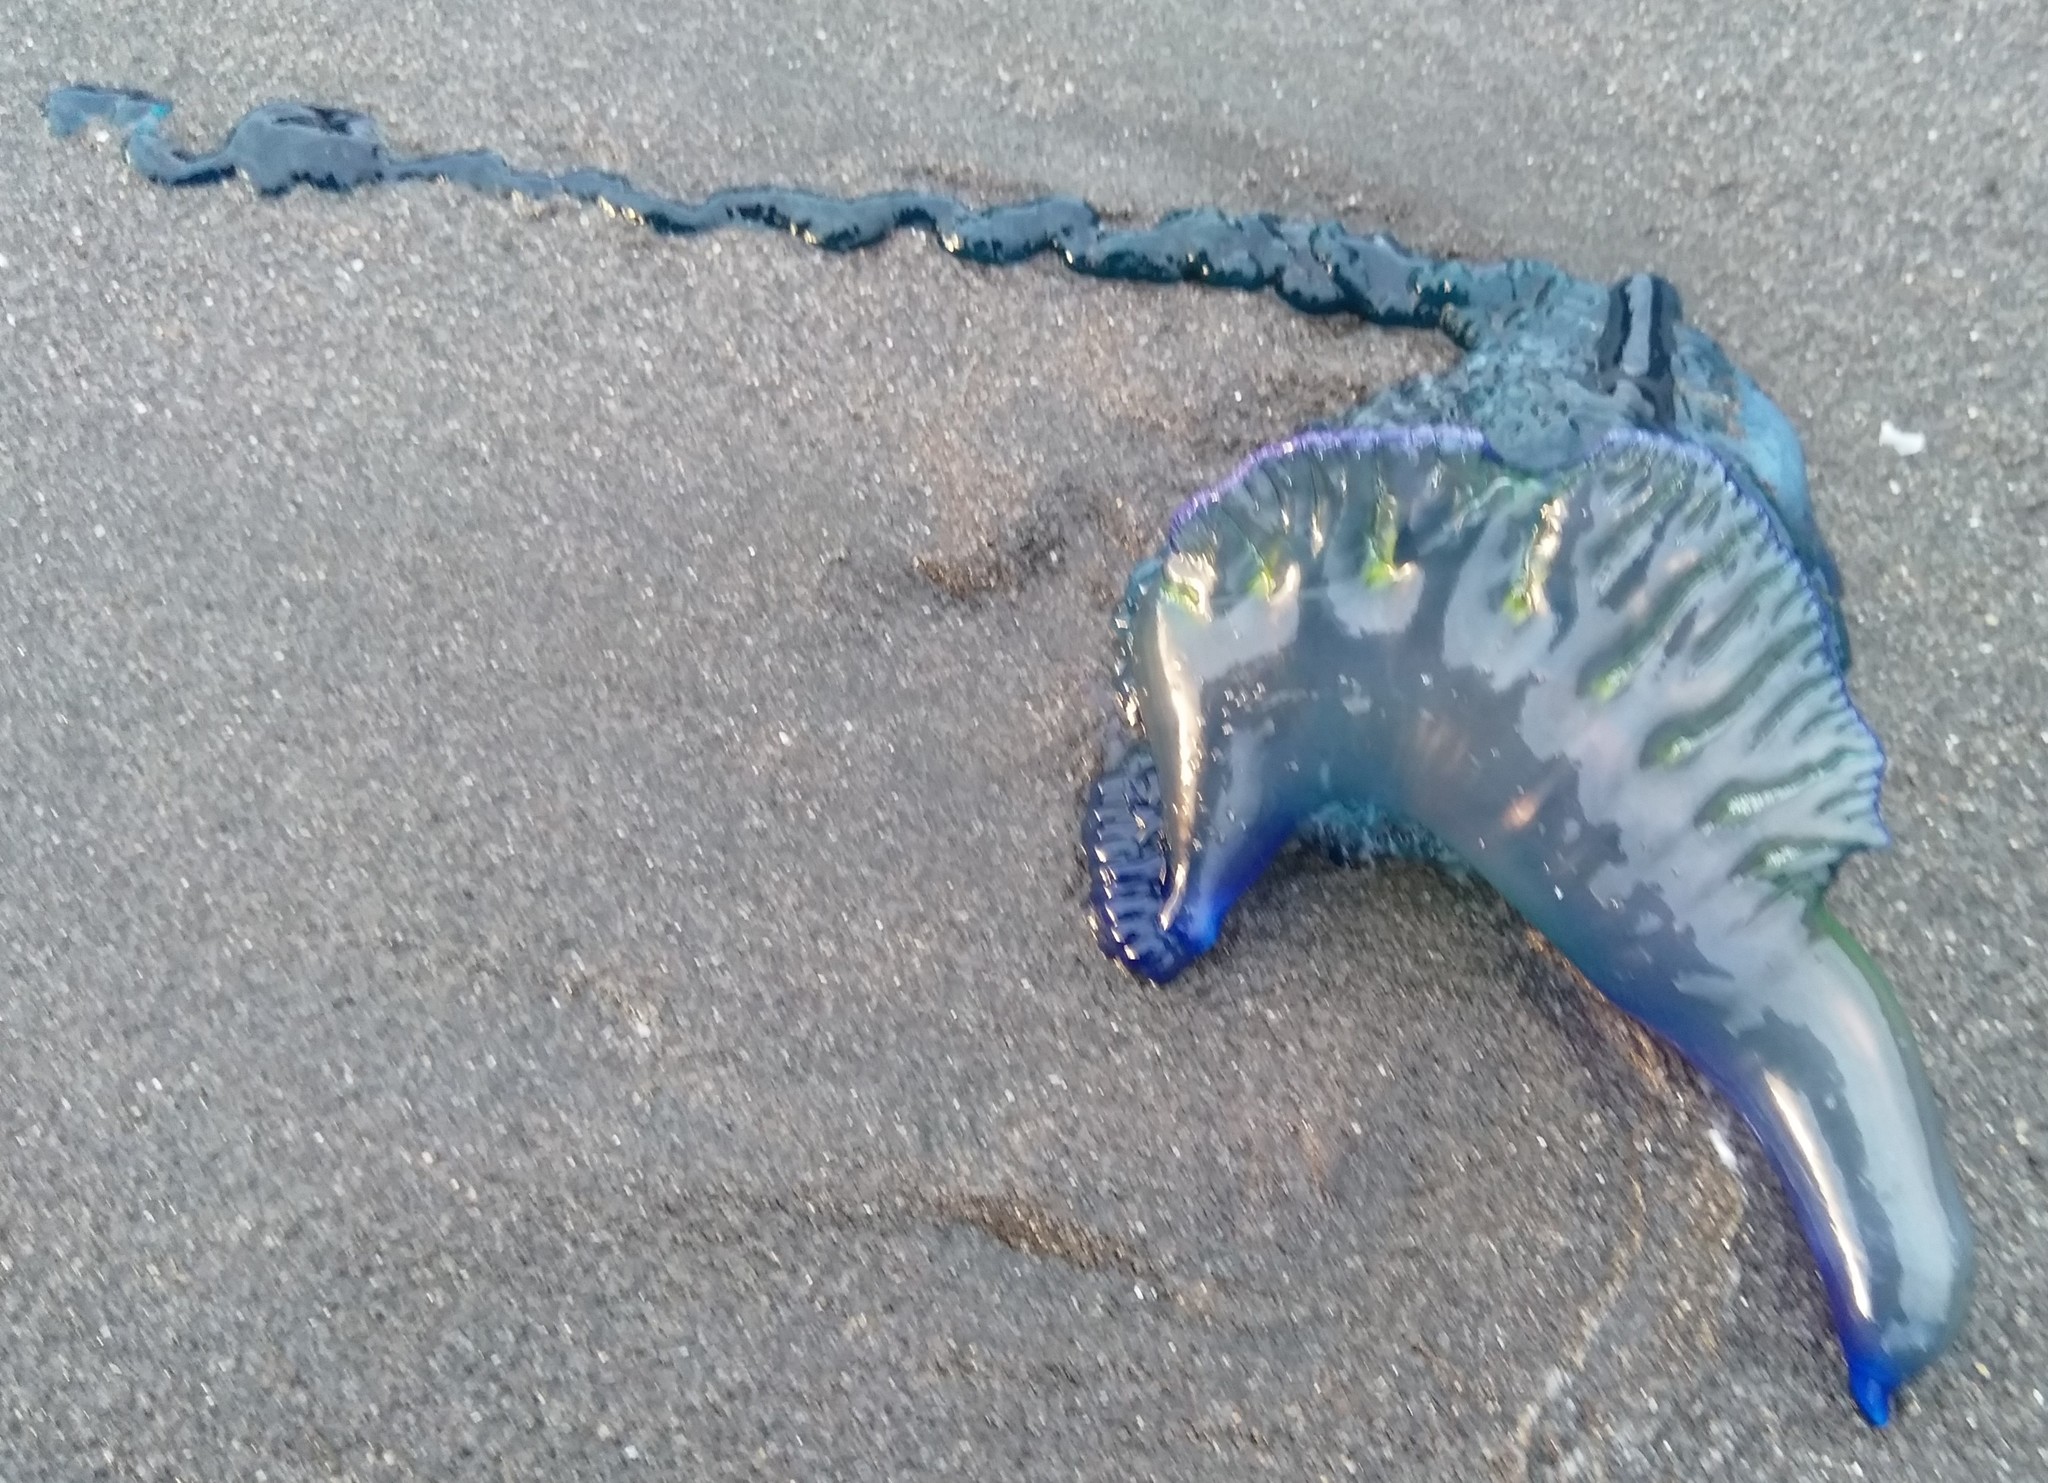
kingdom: Animalia
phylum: Cnidaria
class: Hydrozoa
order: Siphonophorae
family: Physaliidae
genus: Physalia
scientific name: Physalia physalis
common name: Portuguese man-of-war
